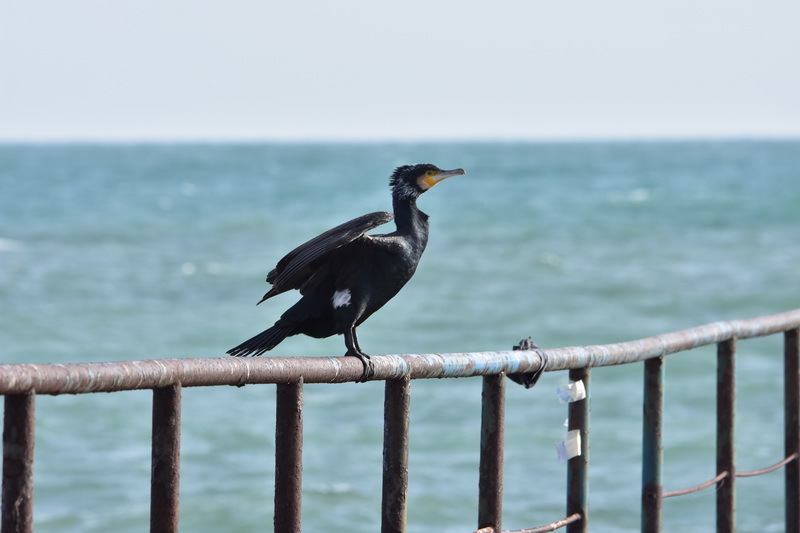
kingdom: Animalia
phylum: Chordata
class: Aves
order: Suliformes
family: Phalacrocoracidae
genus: Phalacrocorax
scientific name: Phalacrocorax carbo
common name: Great cormorant
